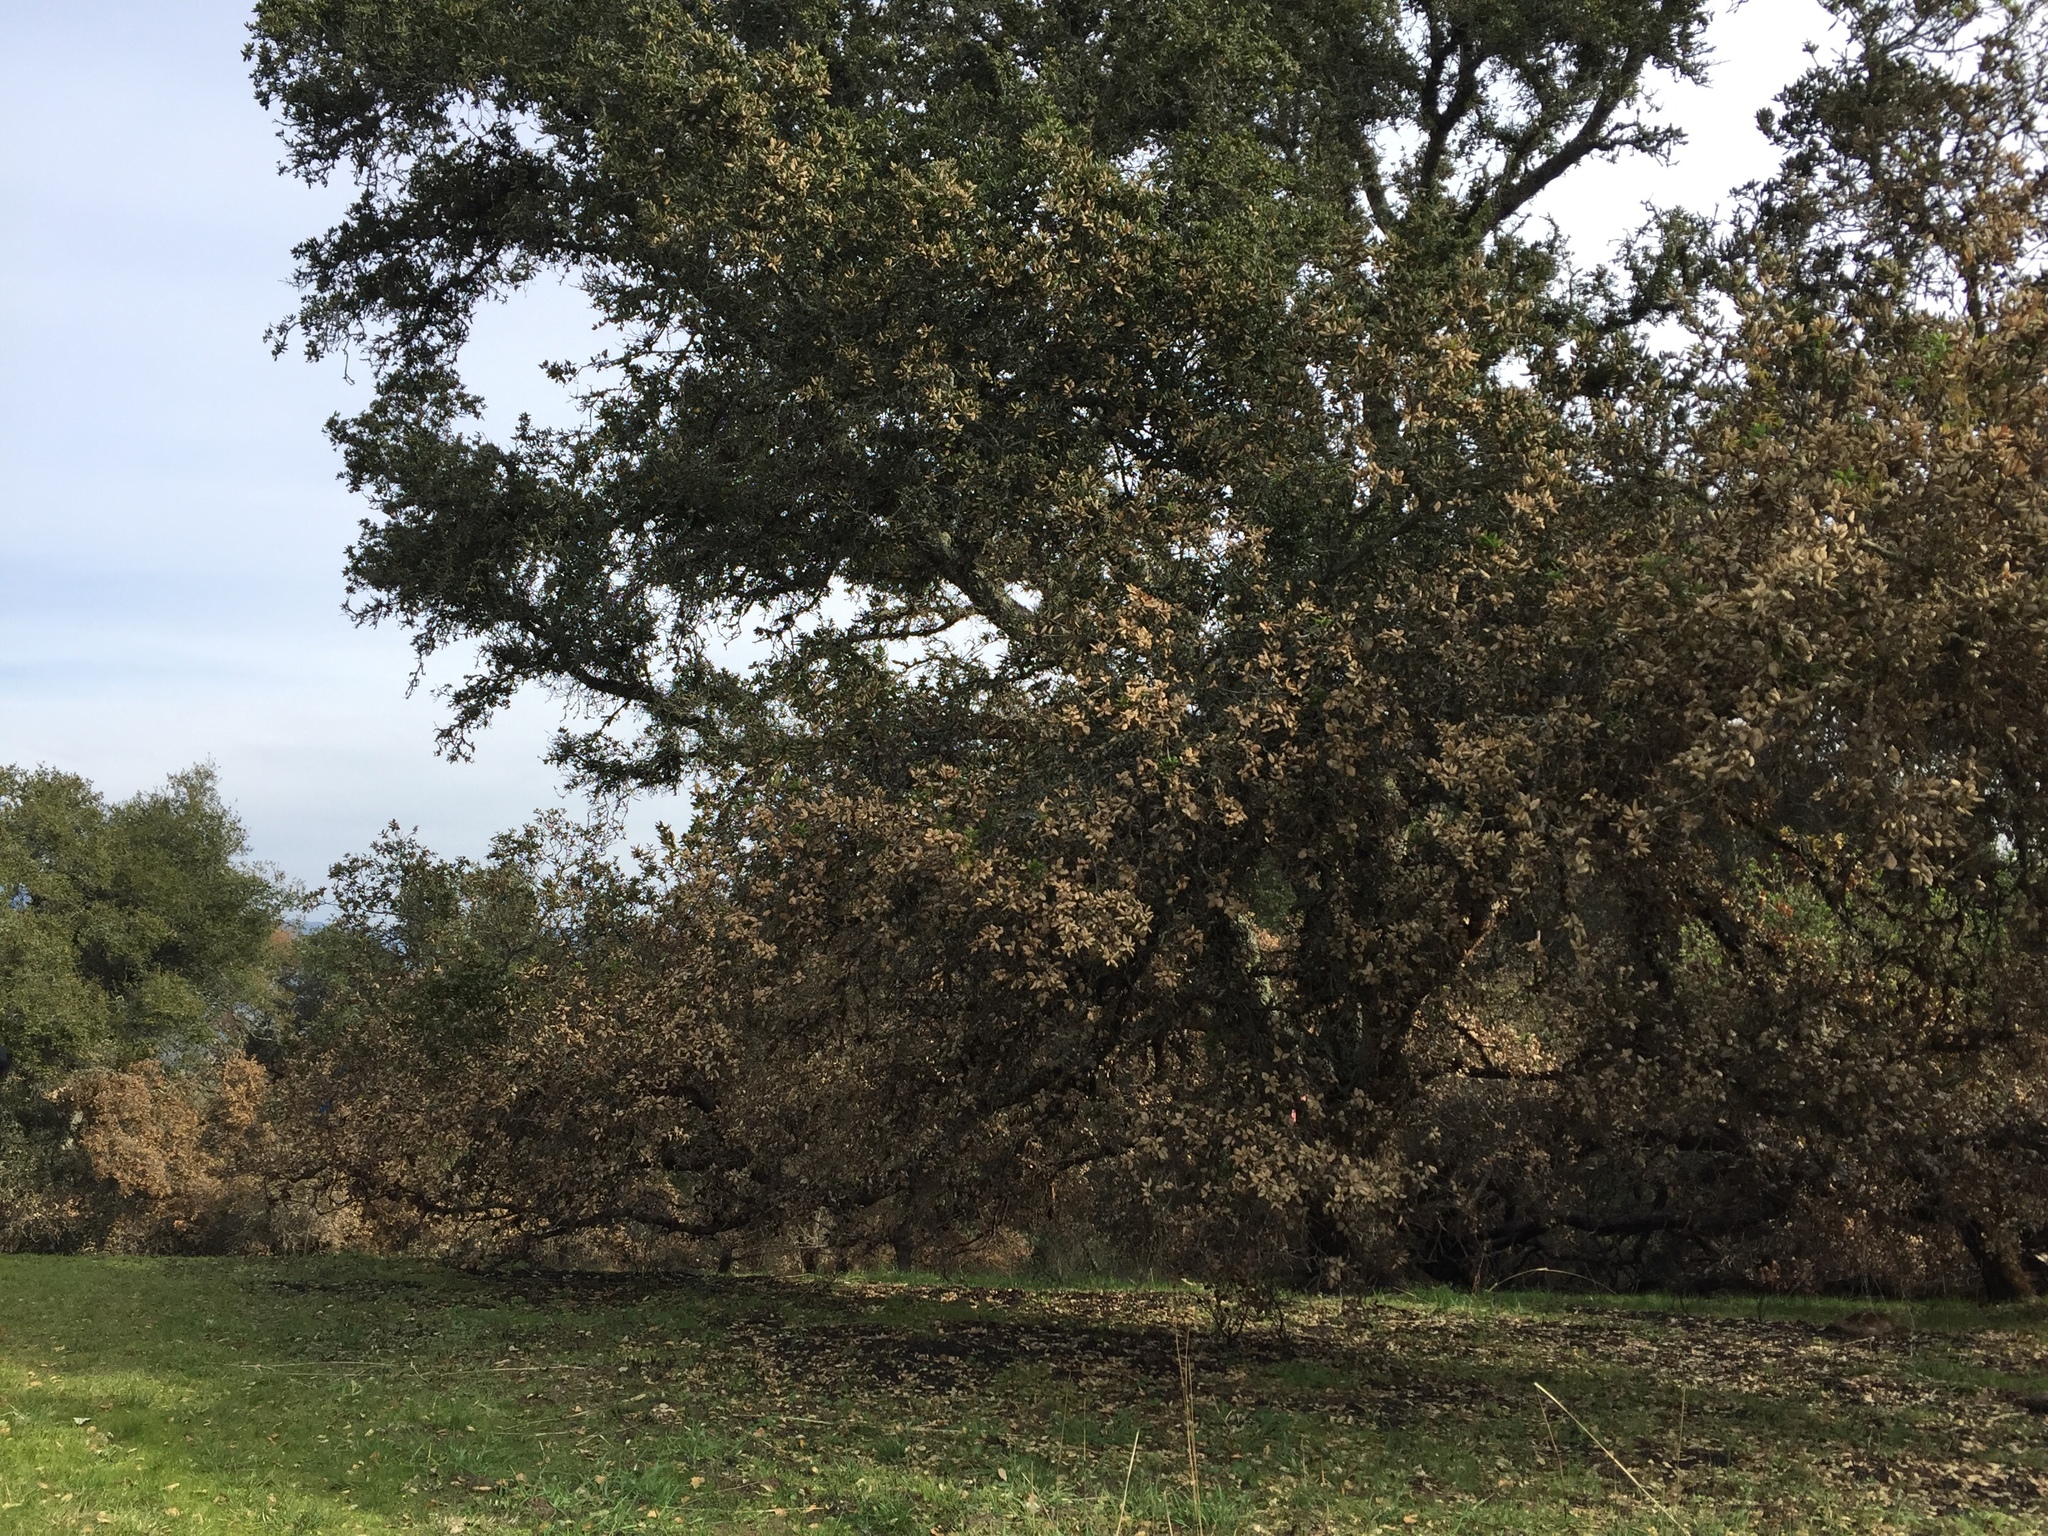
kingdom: Plantae
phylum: Tracheophyta
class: Magnoliopsida
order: Fagales
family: Fagaceae
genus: Quercus
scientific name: Quercus agrifolia
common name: California live oak
